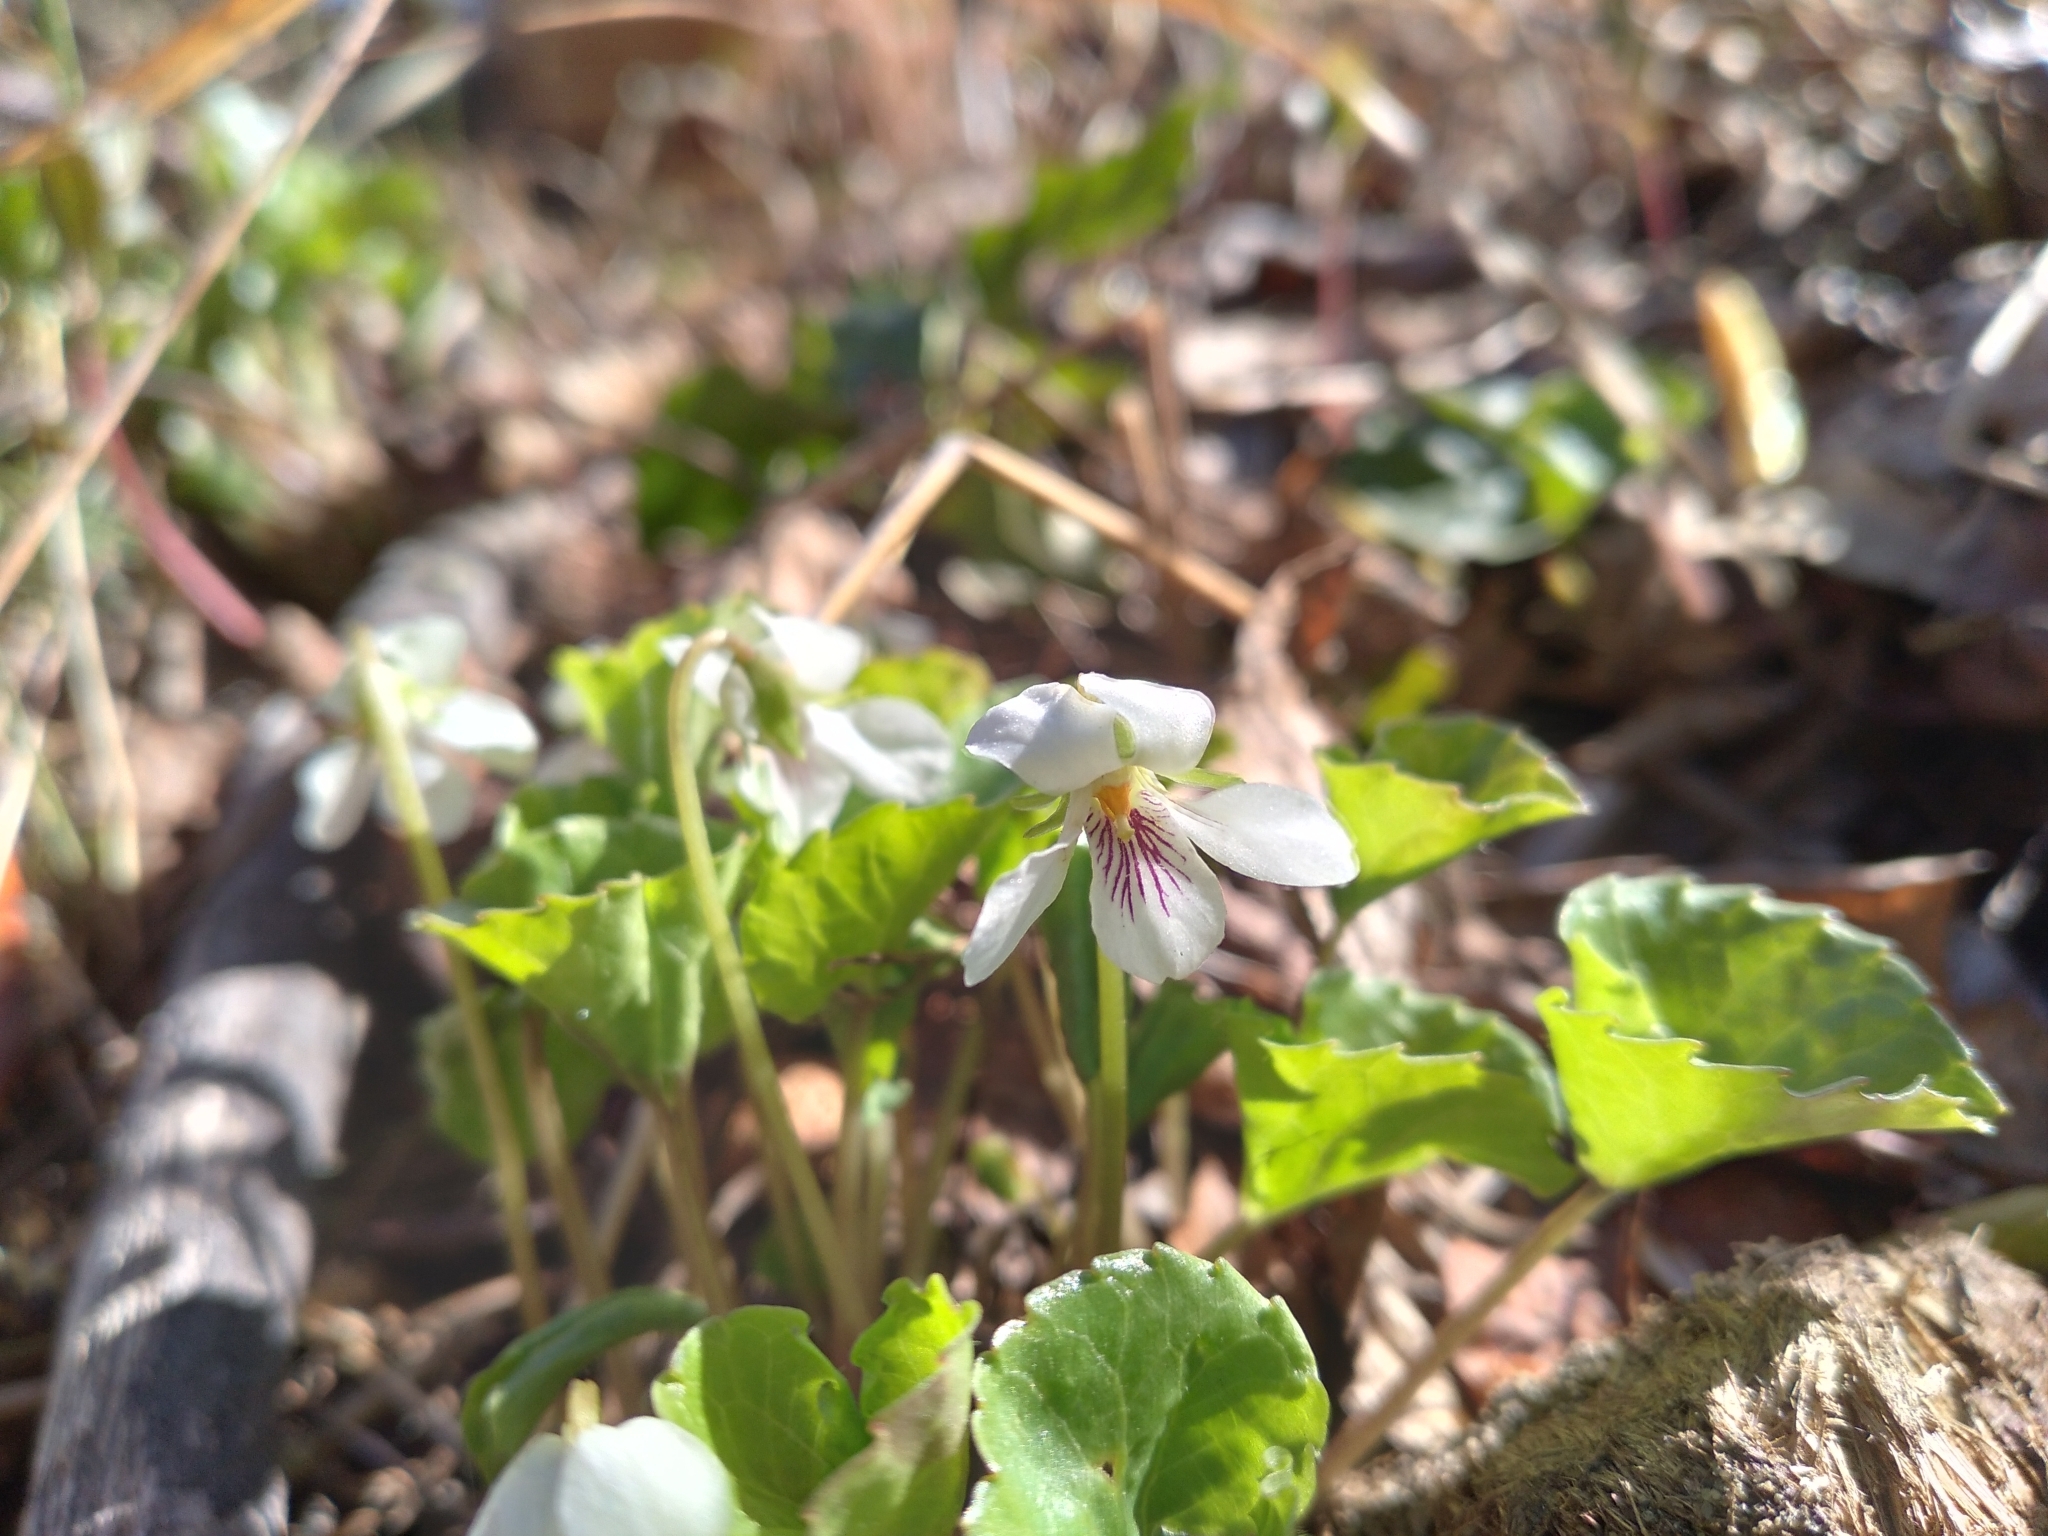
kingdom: Plantae
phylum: Tracheophyta
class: Magnoliopsida
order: Malpighiales
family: Violaceae
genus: Viola
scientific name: Viola renifolia
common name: Kidney-leaf violet
